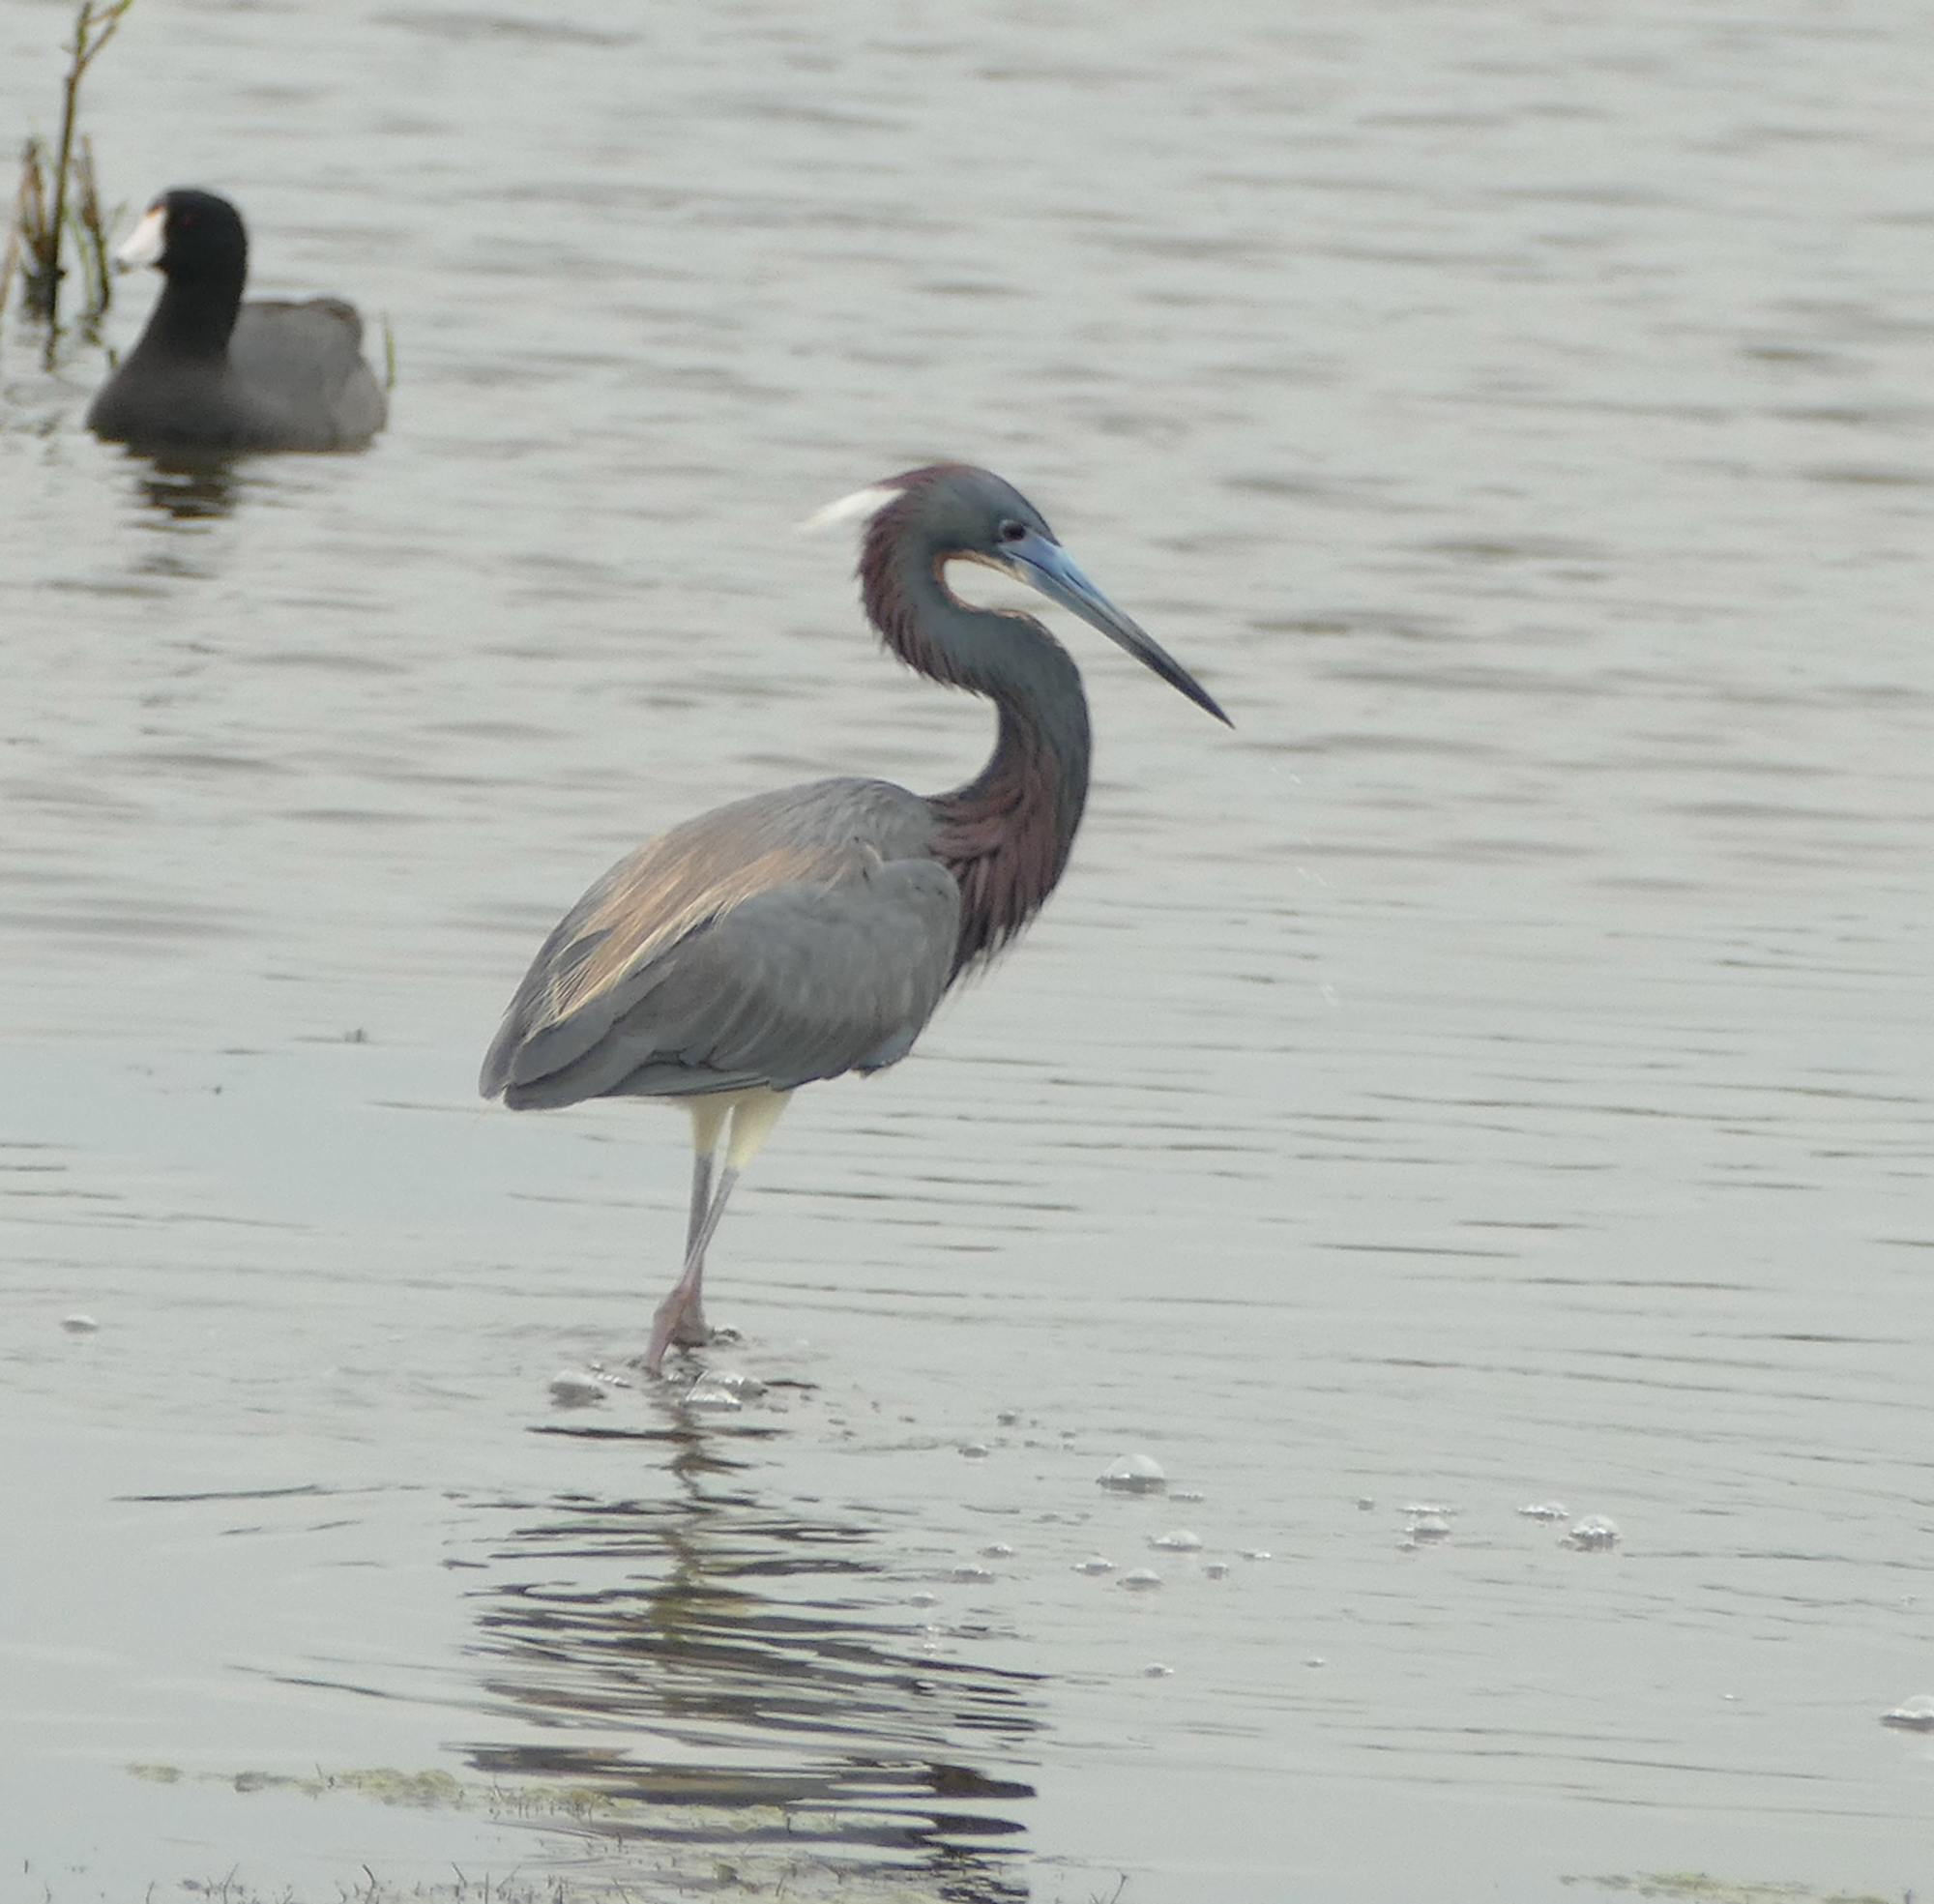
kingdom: Animalia
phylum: Chordata
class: Aves
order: Pelecaniformes
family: Ardeidae
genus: Egretta
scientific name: Egretta tricolor
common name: Tricolored heron
